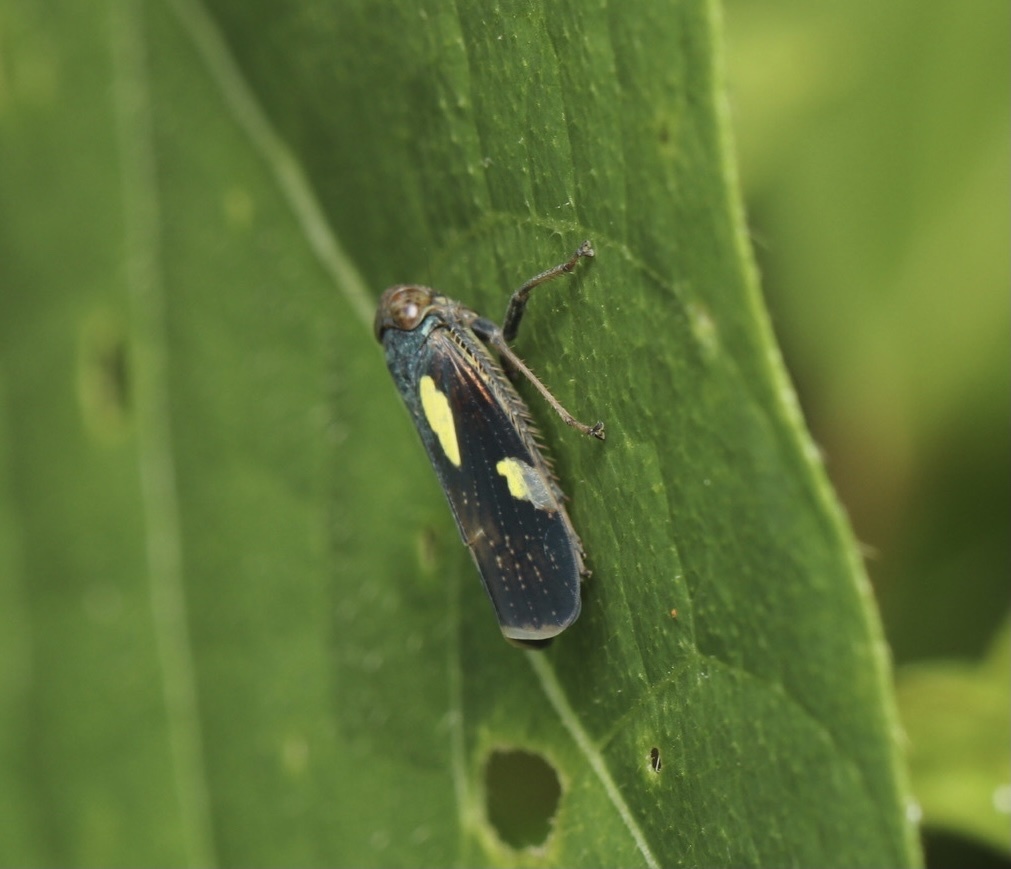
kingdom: Animalia
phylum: Arthropoda
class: Insecta
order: Hemiptera
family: Cicadellidae
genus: Omanolidia
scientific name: Omanolidia bistyla
